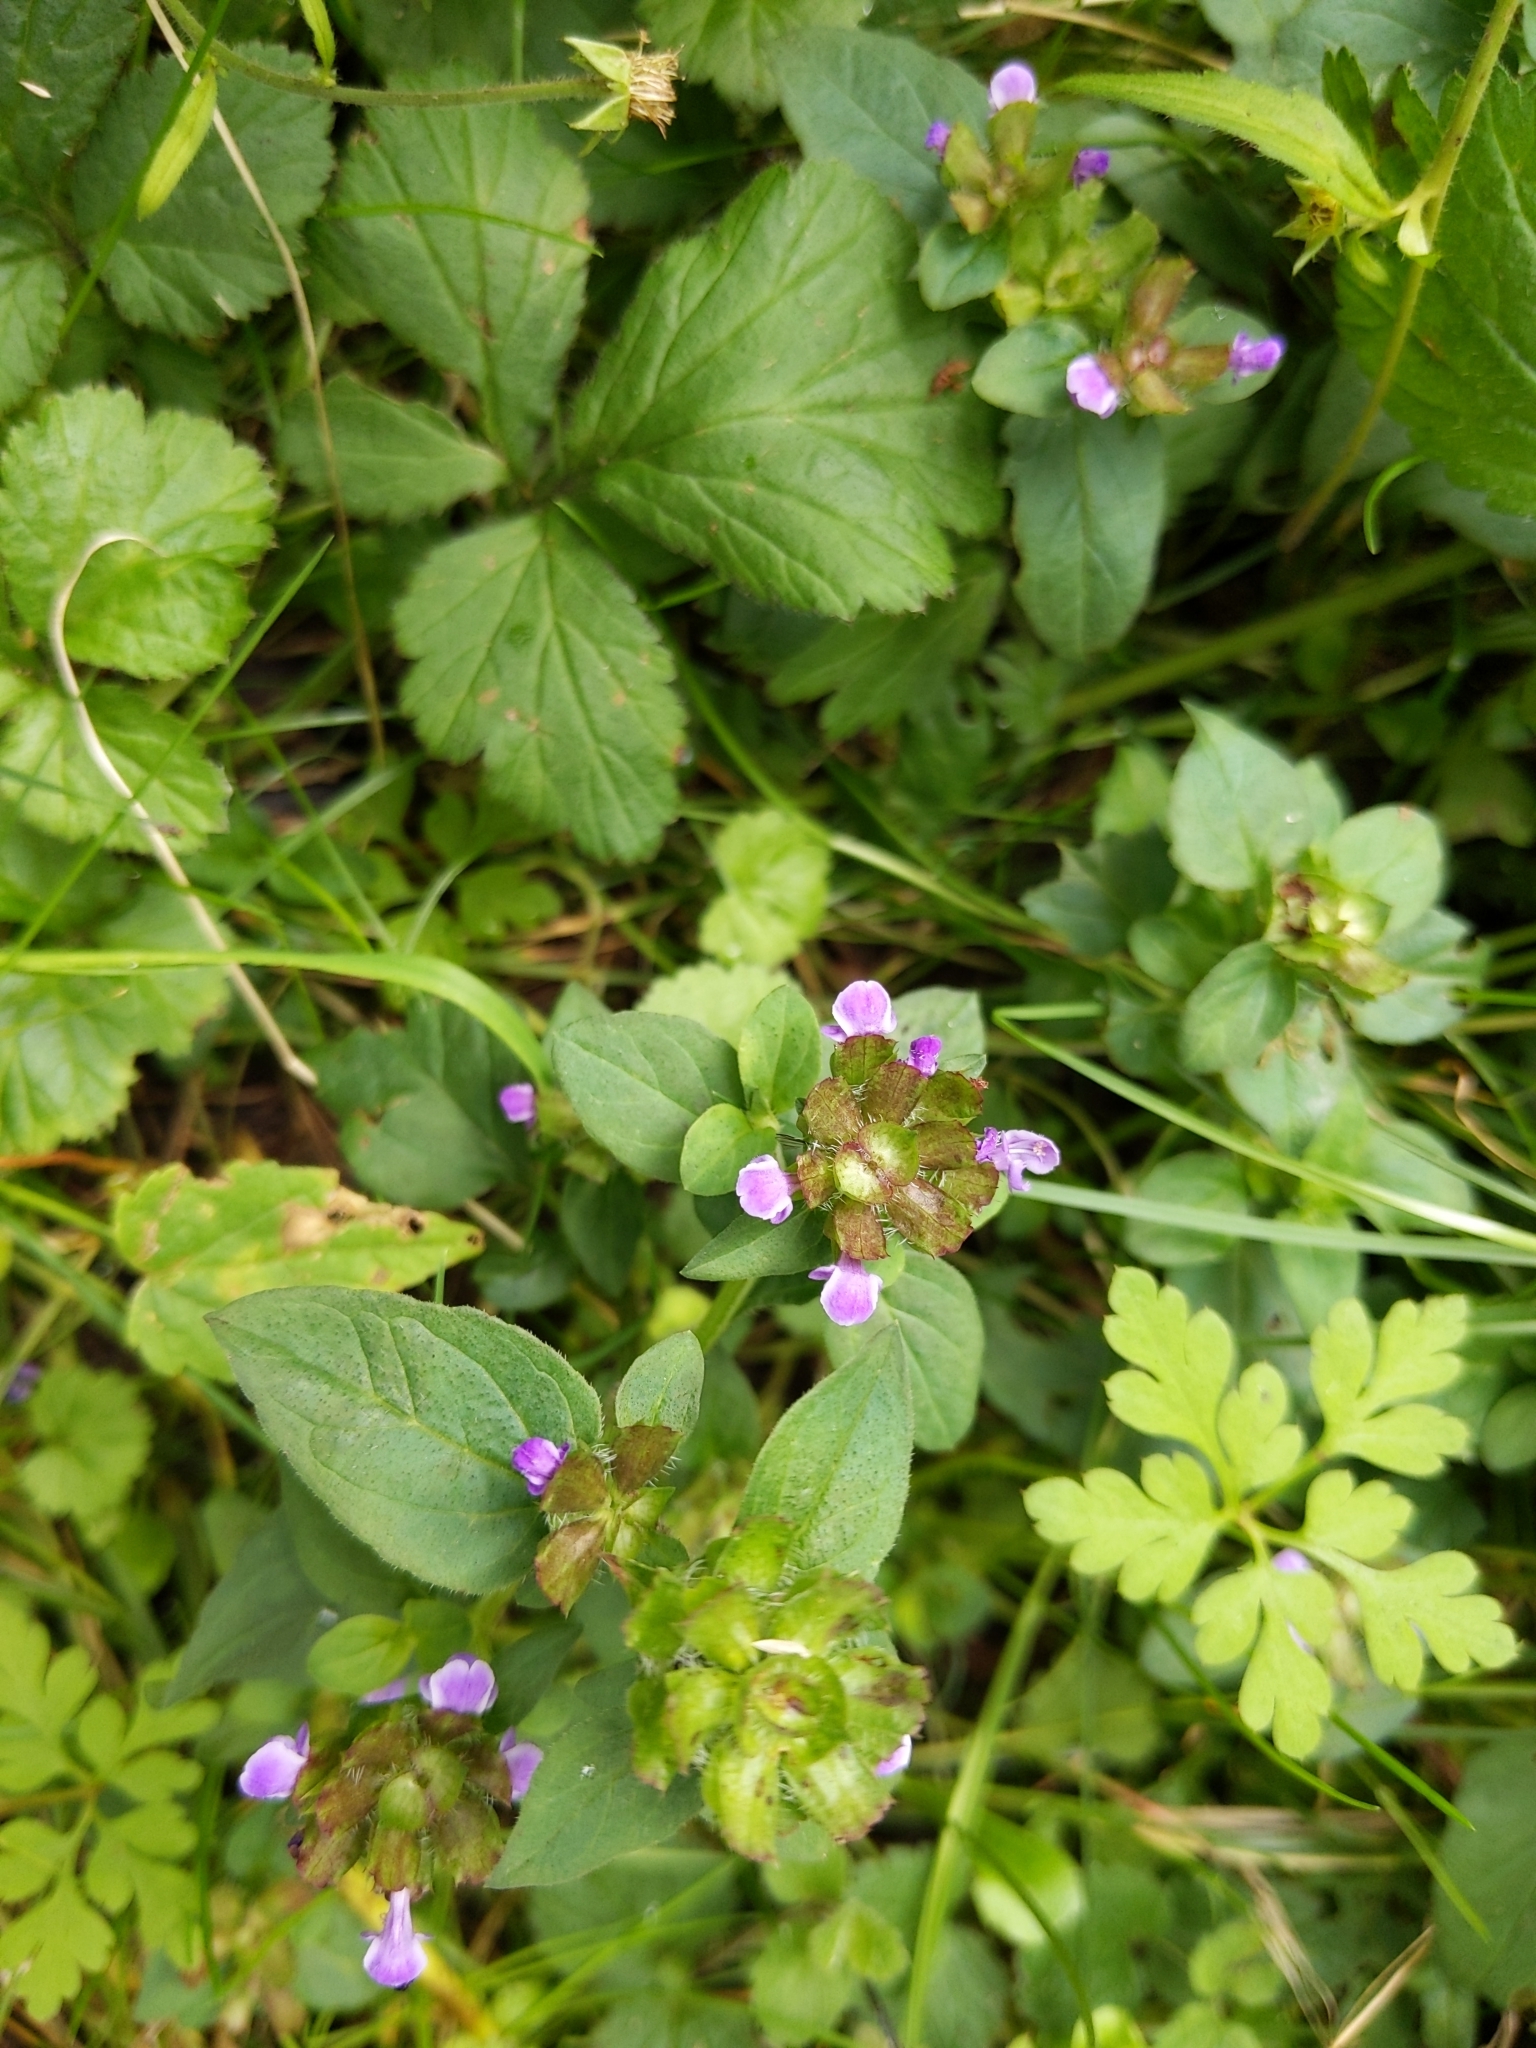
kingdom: Plantae
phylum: Tracheophyta
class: Magnoliopsida
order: Lamiales
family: Lamiaceae
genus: Prunella
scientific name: Prunella vulgaris
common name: Heal-all
